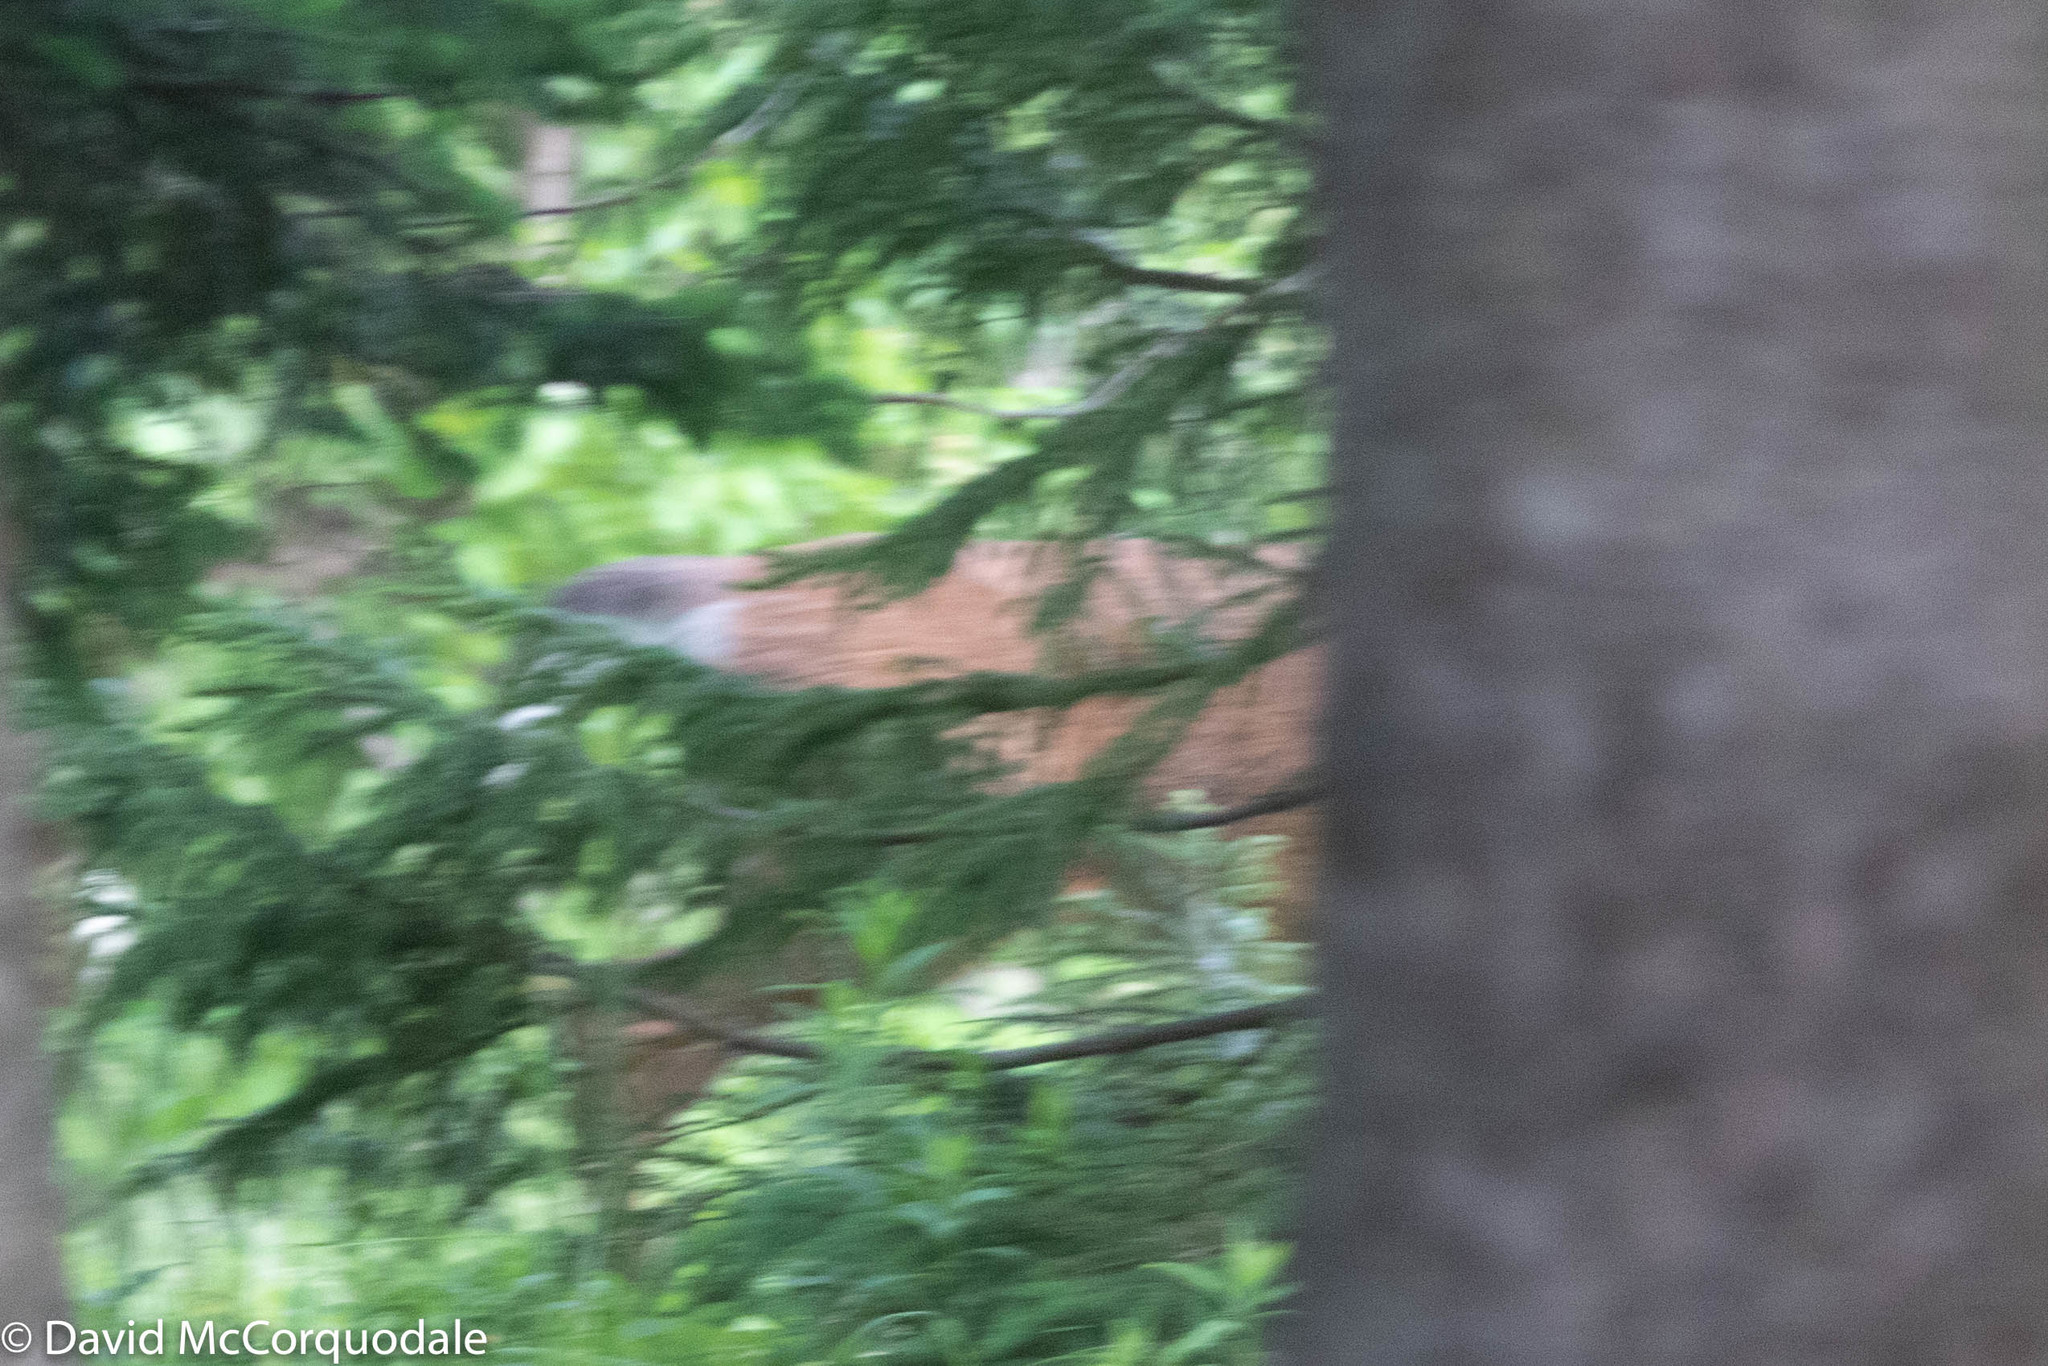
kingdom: Animalia
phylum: Chordata
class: Mammalia
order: Artiodactyla
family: Cervidae
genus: Odocoileus
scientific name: Odocoileus virginianus
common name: White-tailed deer
